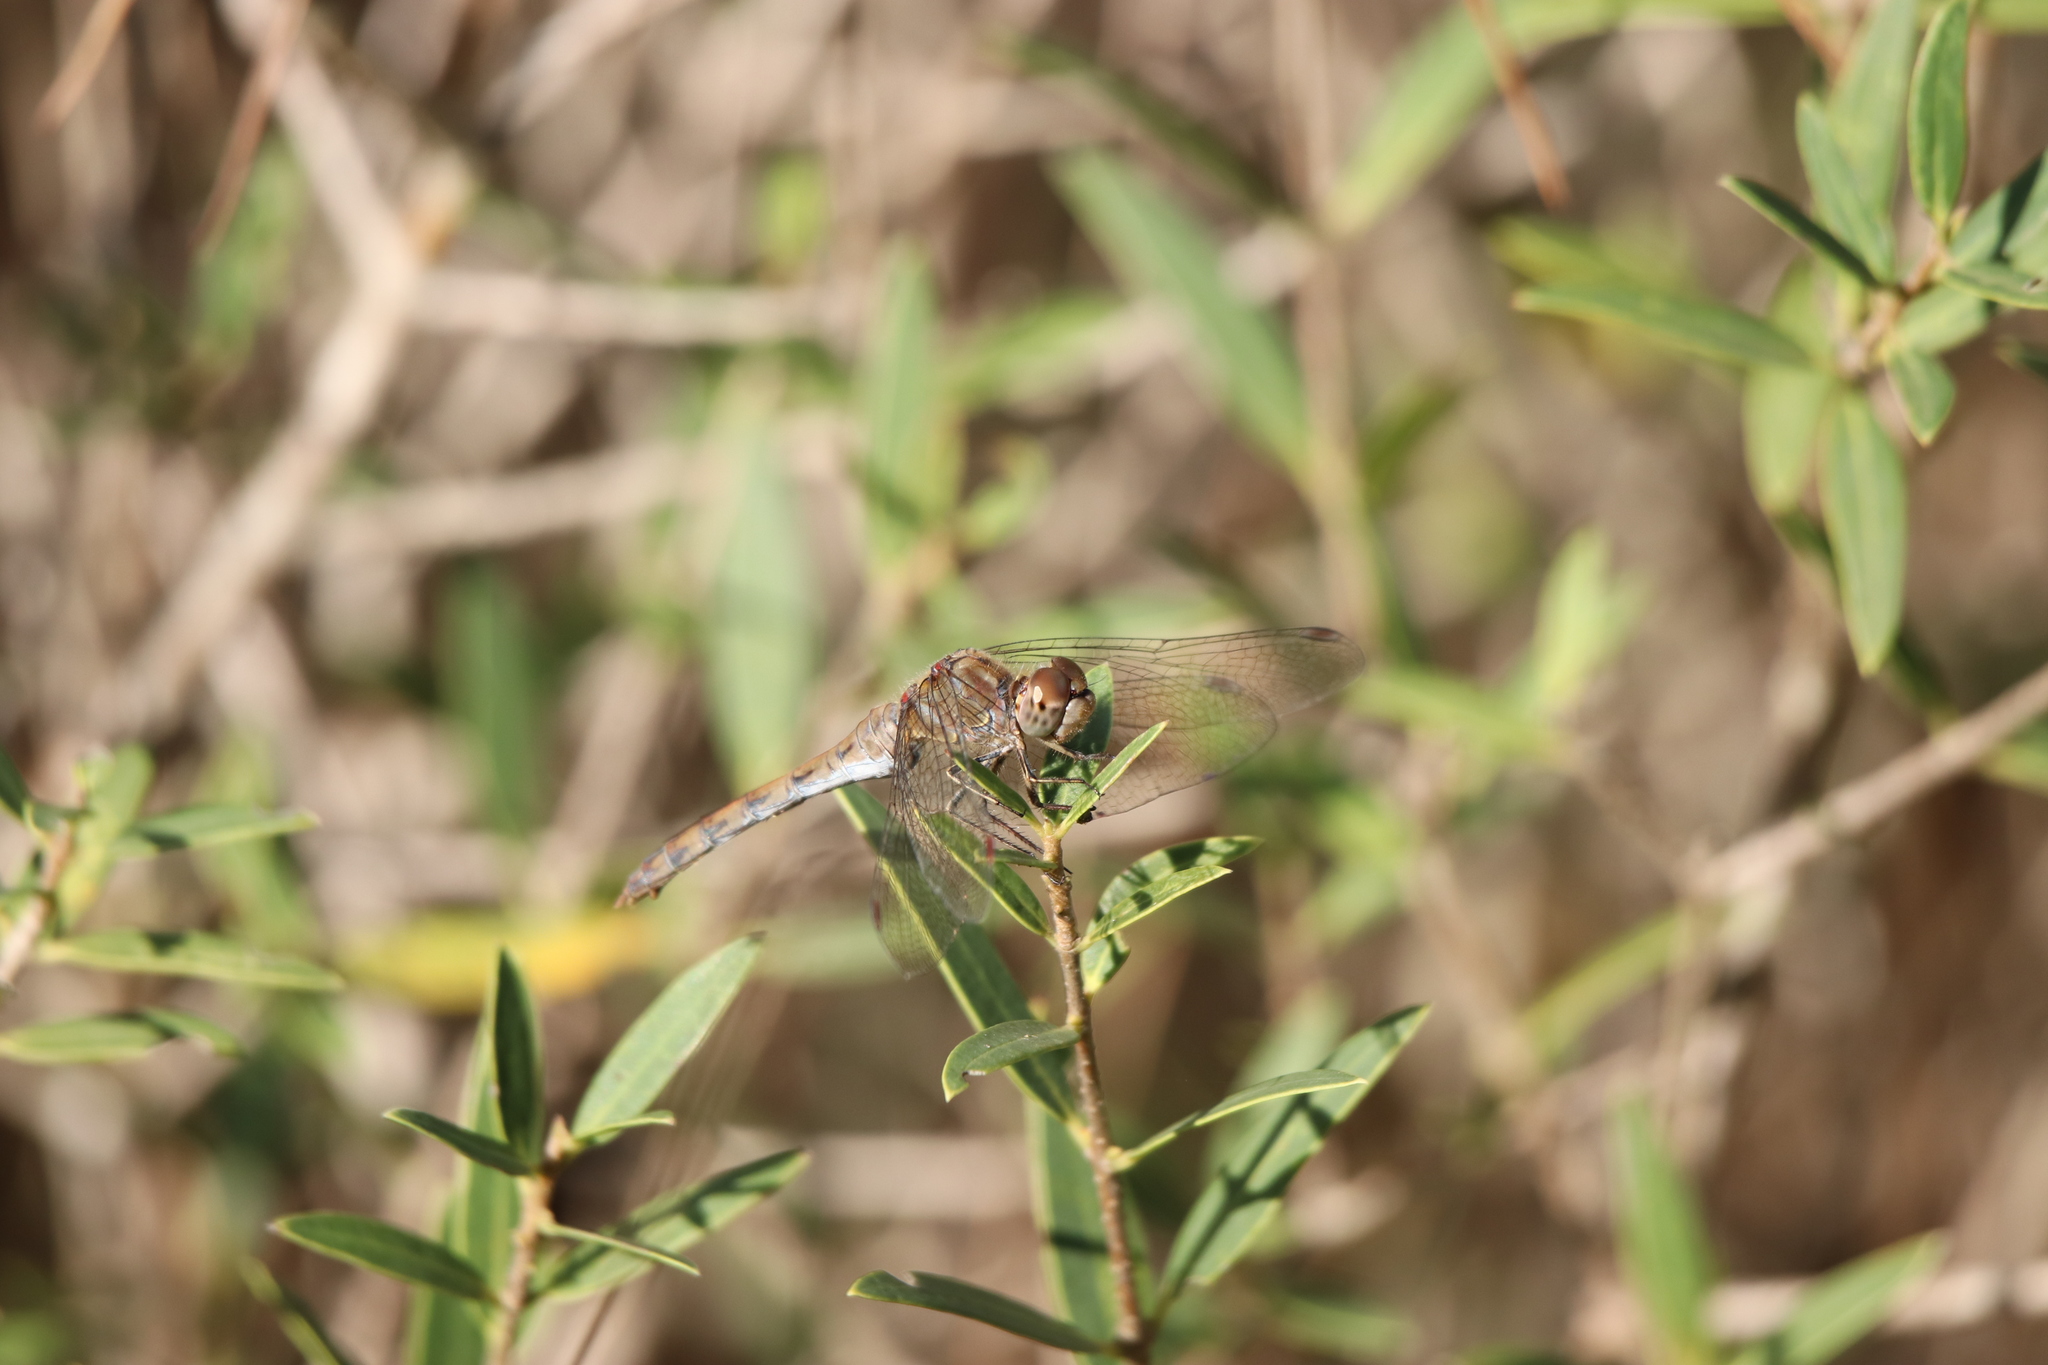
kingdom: Animalia
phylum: Arthropoda
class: Insecta
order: Odonata
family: Libellulidae
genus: Sympetrum
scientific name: Sympetrum striolatum
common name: Common darter
